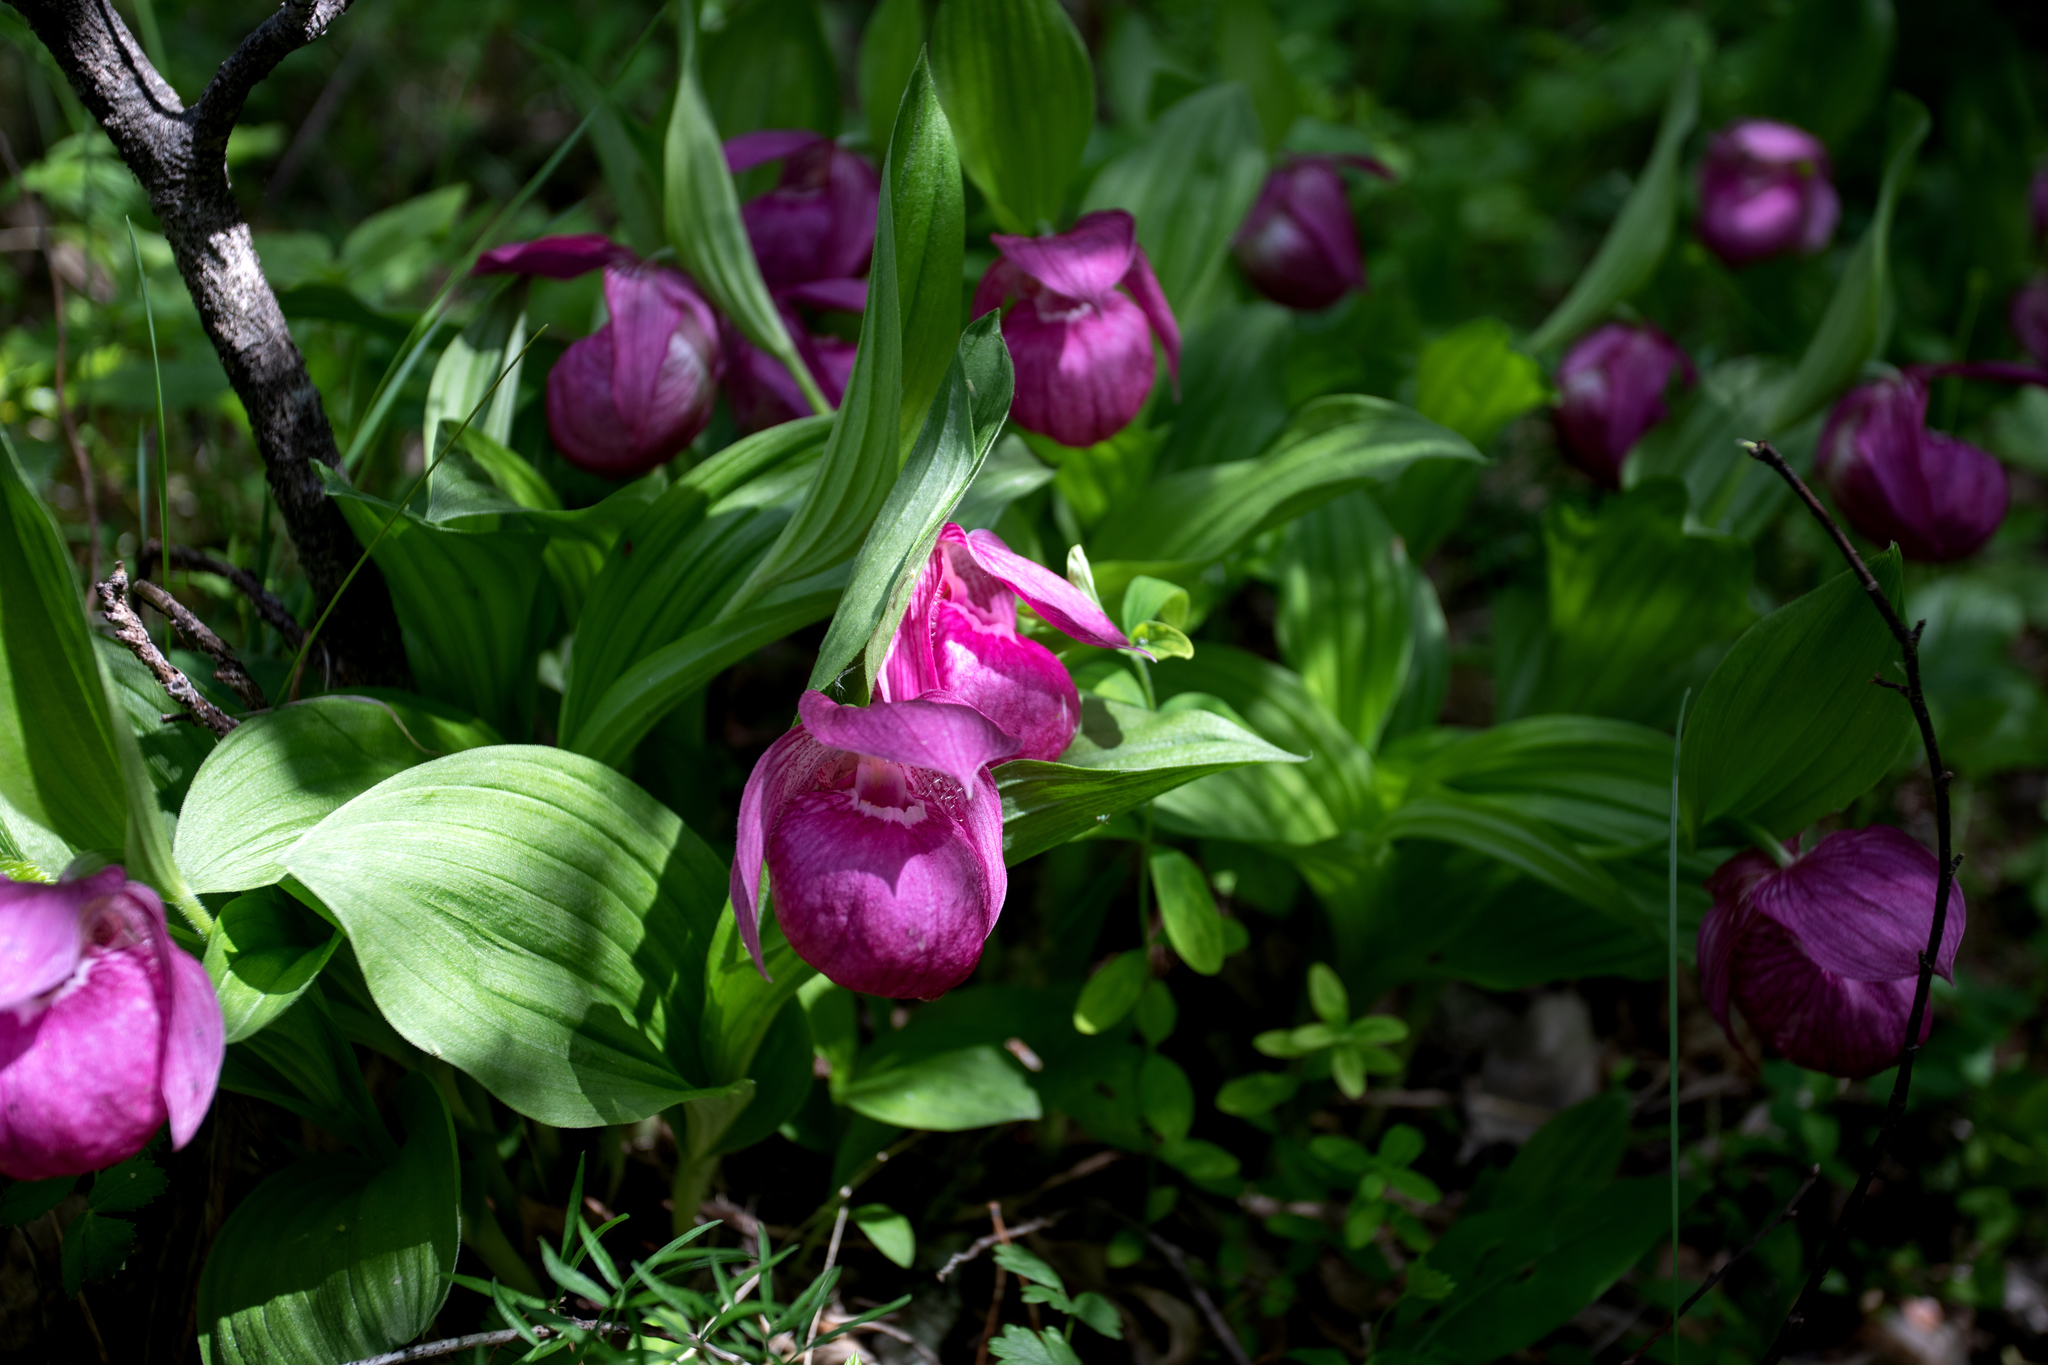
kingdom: Plantae
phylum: Tracheophyta
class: Liliopsida
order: Asparagales
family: Orchidaceae
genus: Cypripedium
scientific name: Cypripedium macranthos
